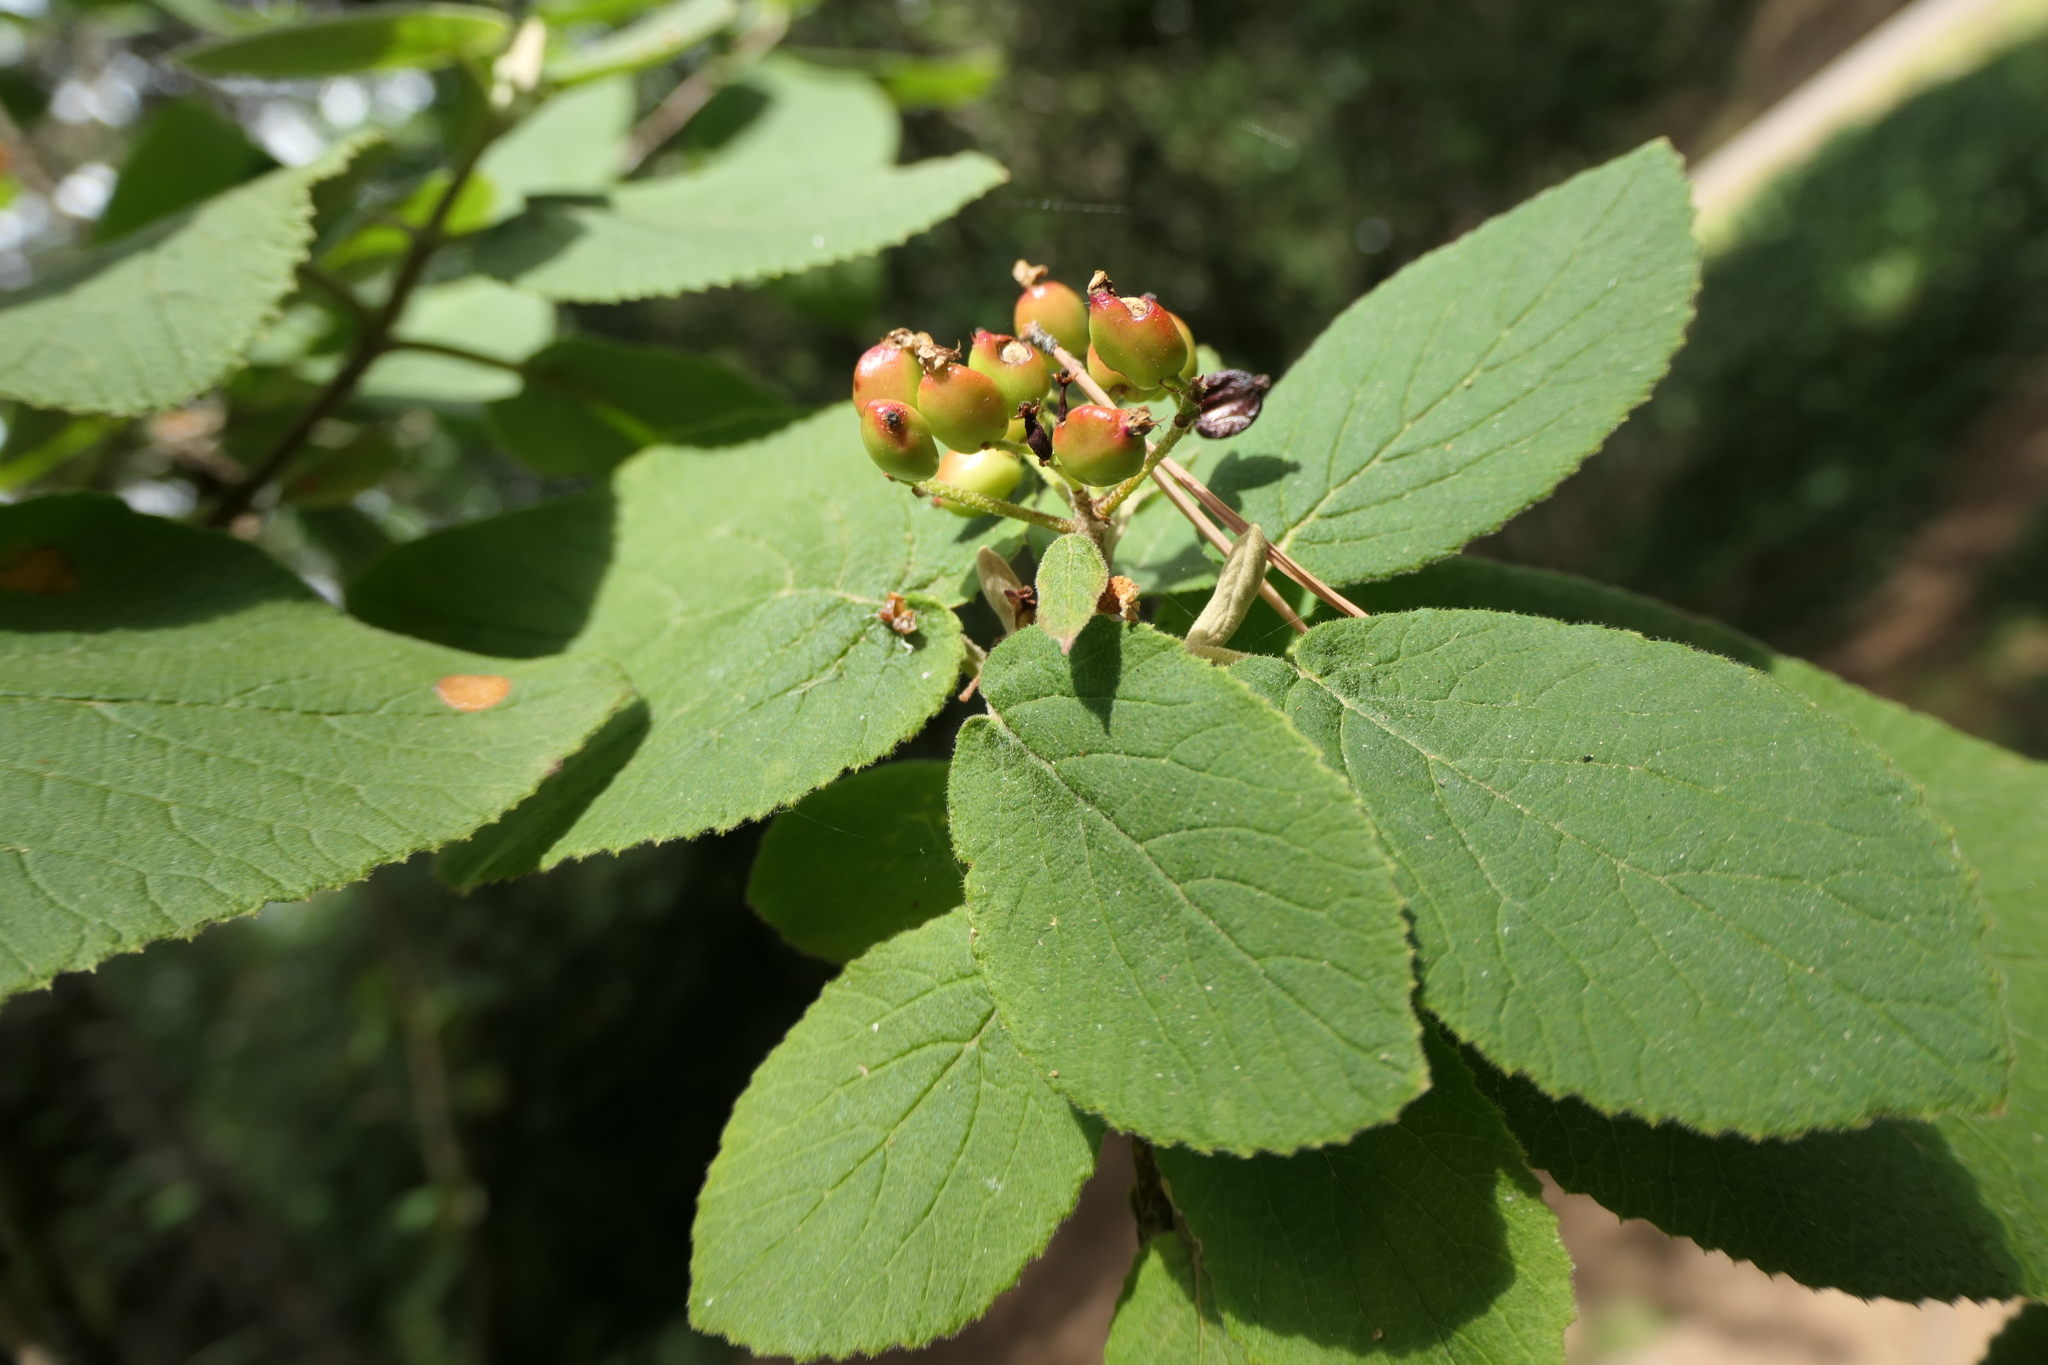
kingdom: Plantae
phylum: Tracheophyta
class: Magnoliopsida
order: Dipsacales
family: Viburnaceae
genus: Viburnum
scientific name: Viburnum lantana
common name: Wayfaring tree
